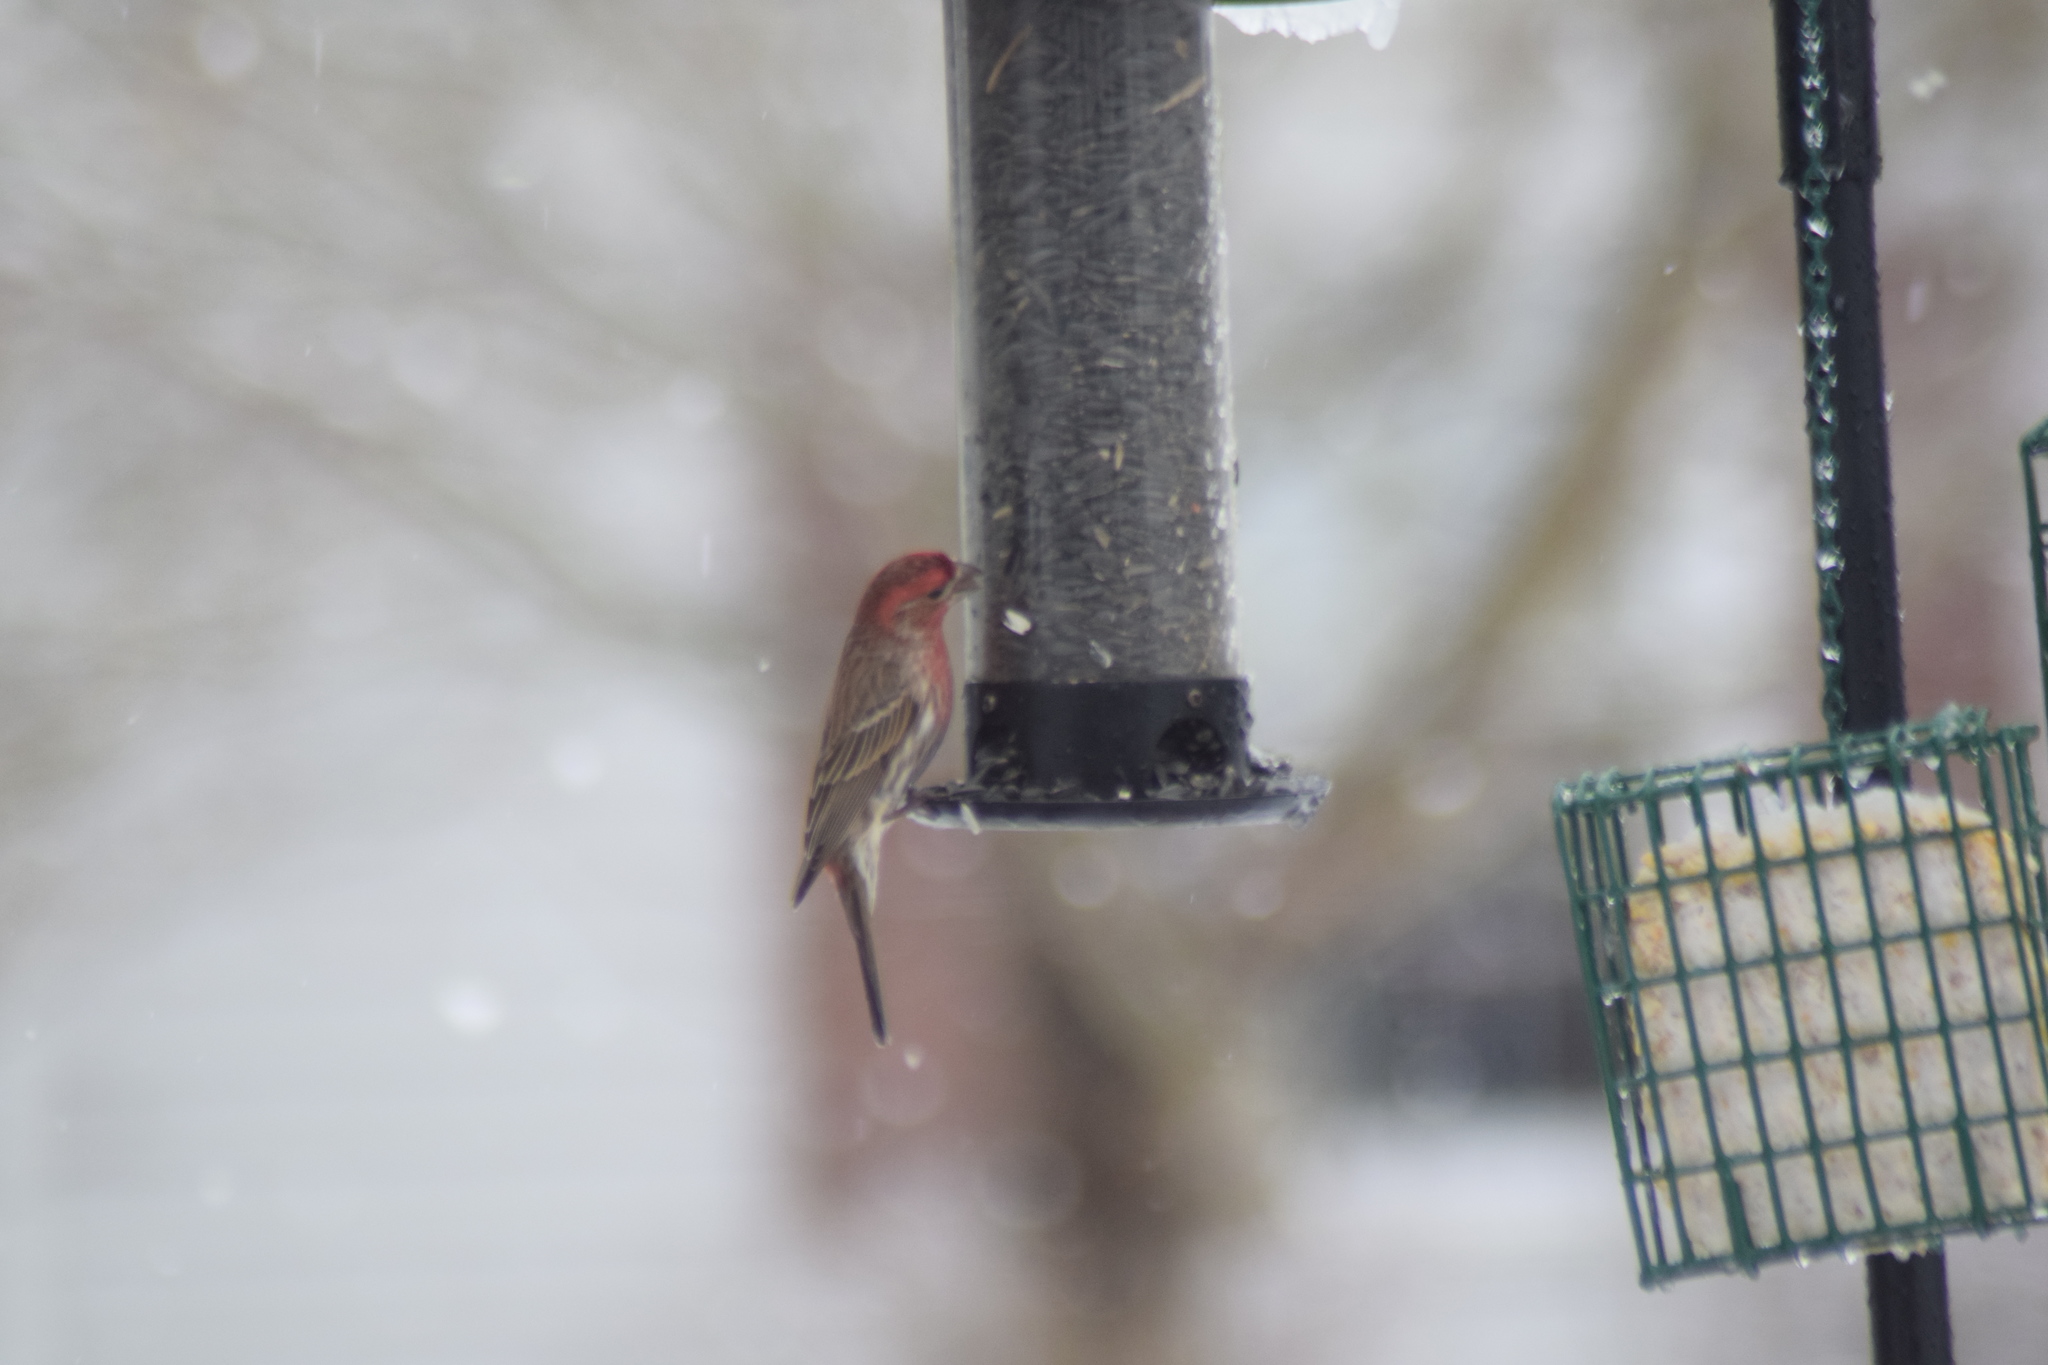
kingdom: Animalia
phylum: Chordata
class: Aves
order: Passeriformes
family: Fringillidae
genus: Haemorhous
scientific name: Haemorhous mexicanus
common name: House finch
